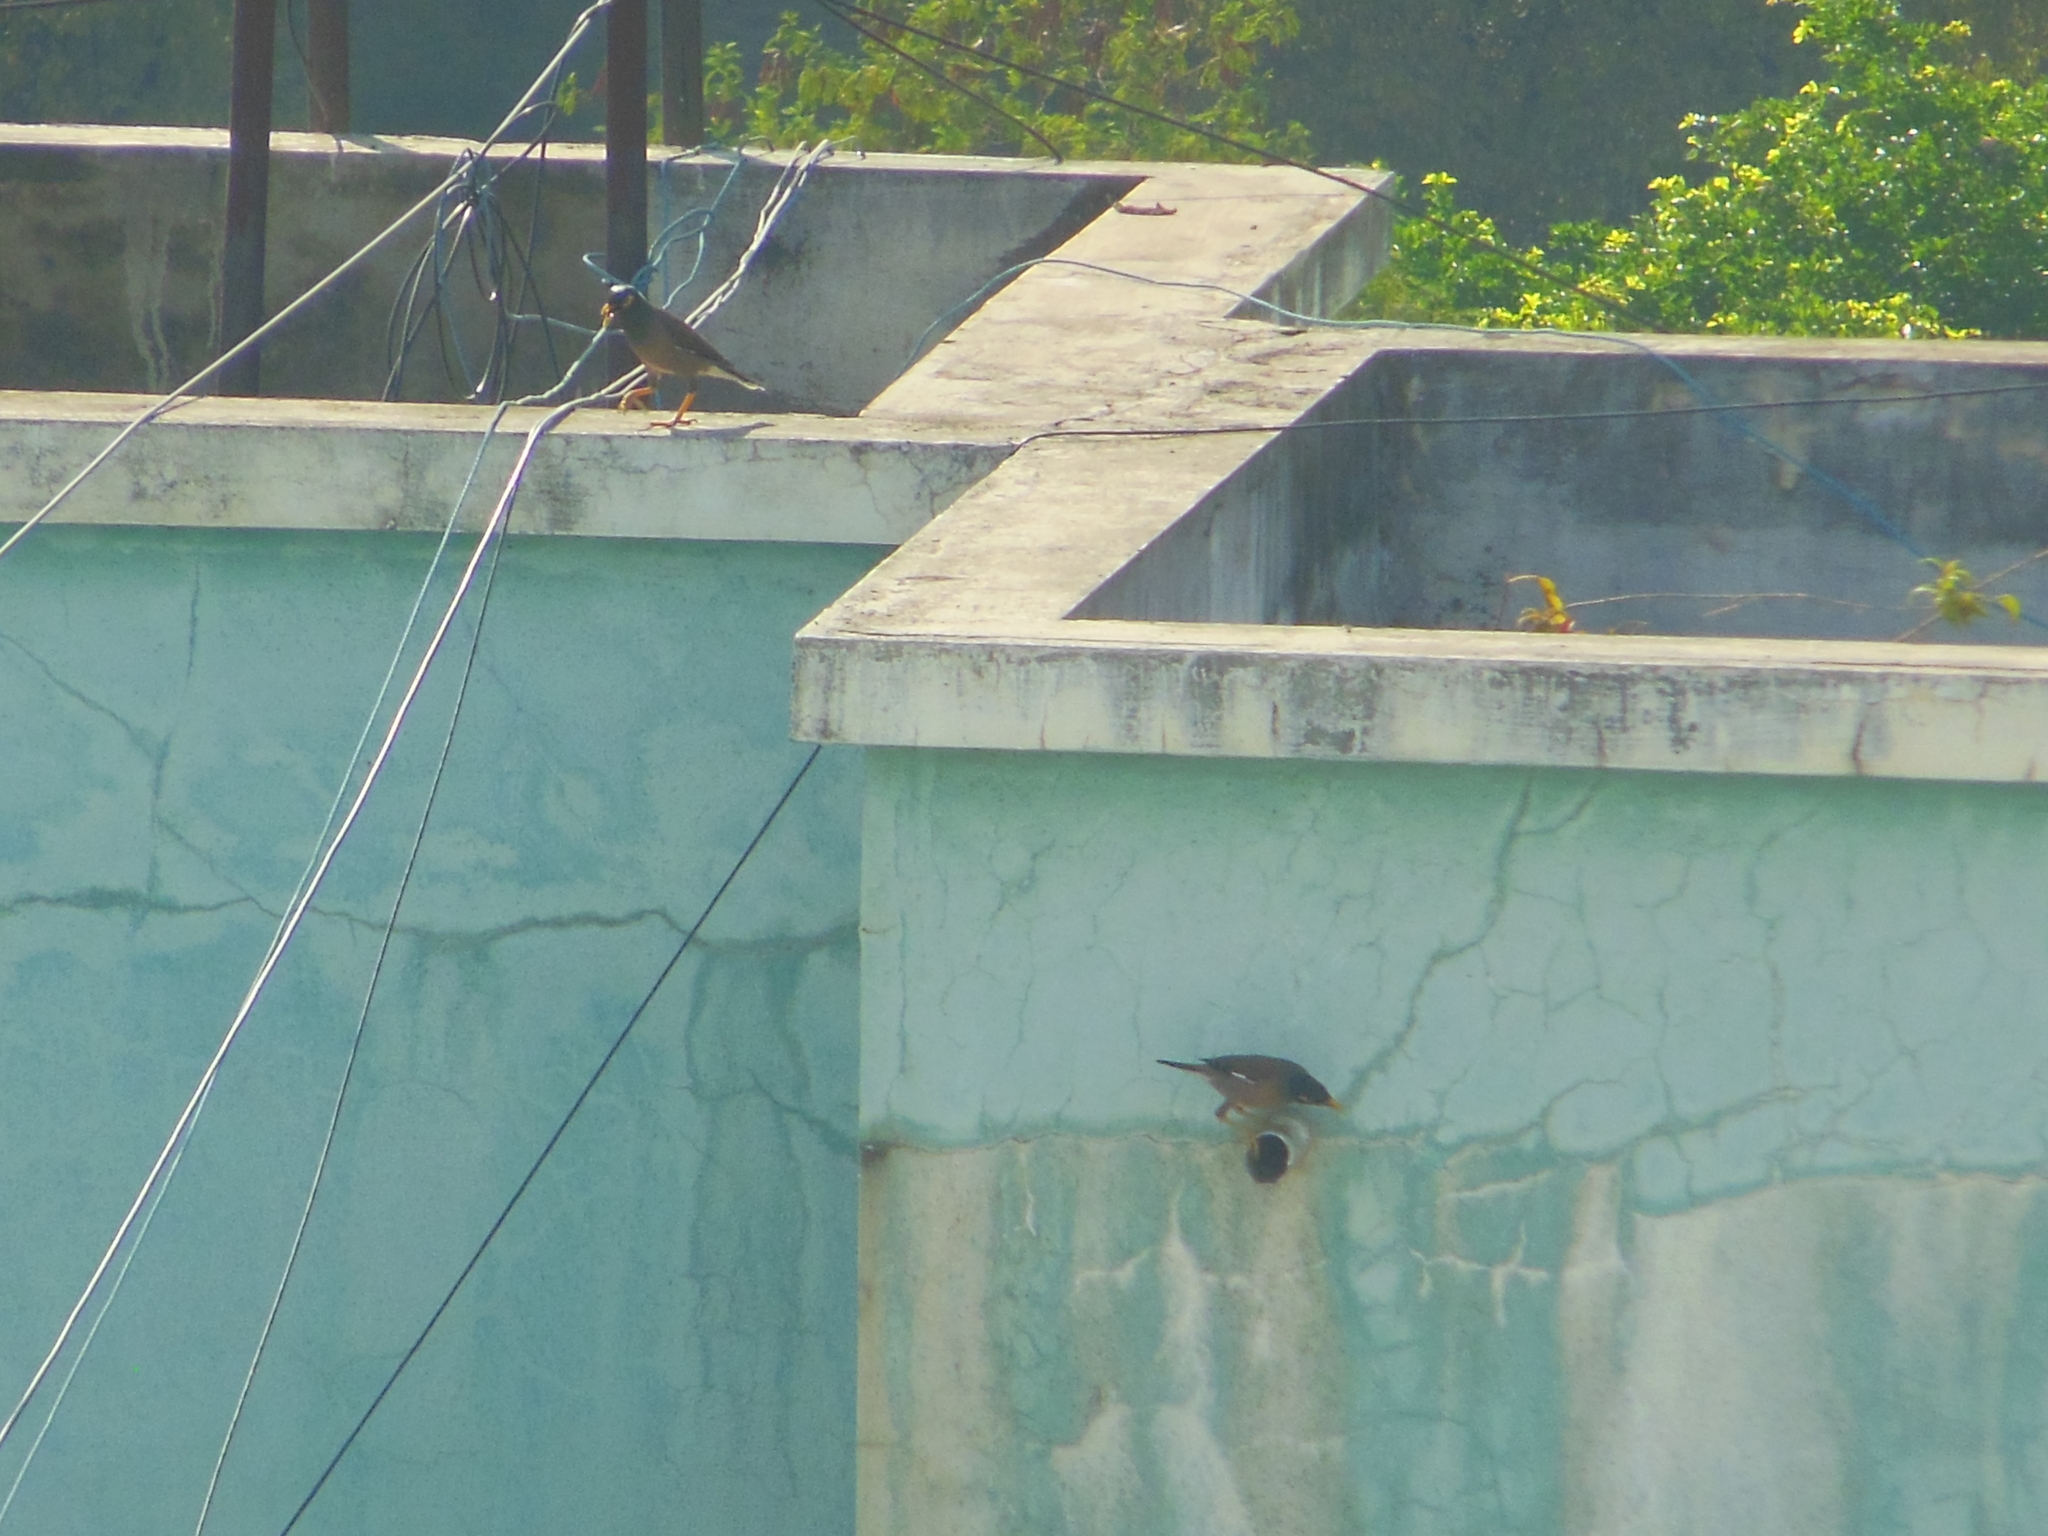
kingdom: Animalia
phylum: Chordata
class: Aves
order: Passeriformes
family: Sturnidae
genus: Acridotheres
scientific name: Acridotheres tristis
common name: Common myna
